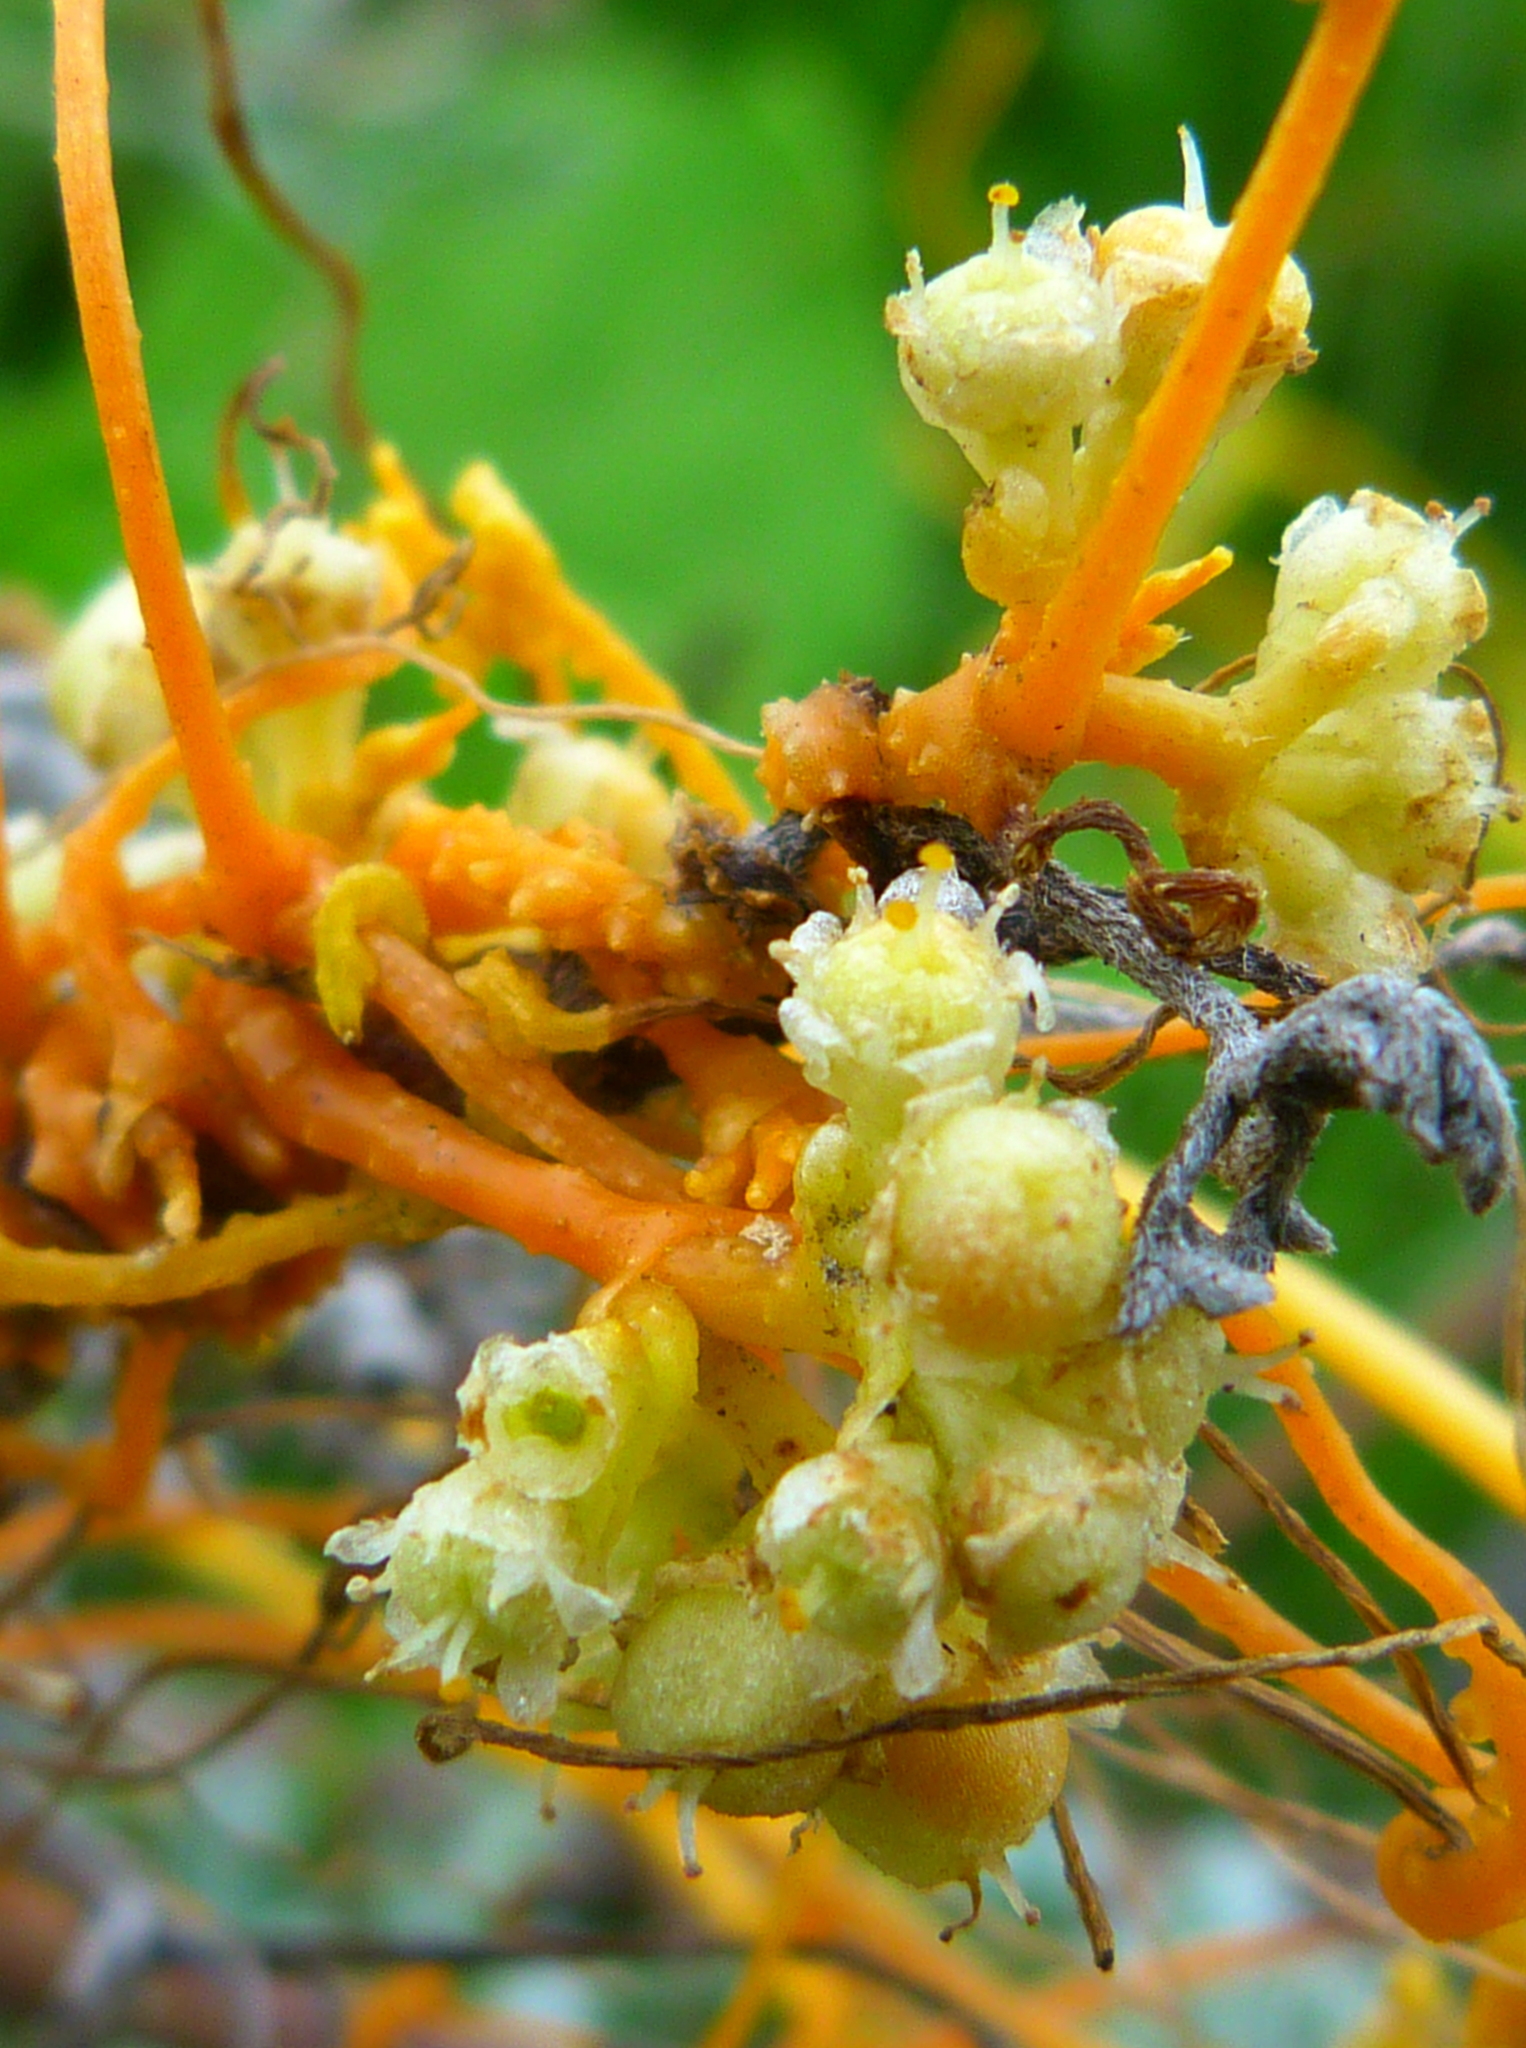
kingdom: Plantae
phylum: Tracheophyta
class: Magnoliopsida
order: Solanales
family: Convolvulaceae
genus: Cuscuta
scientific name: Cuscuta campestris
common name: Yellow dodder
